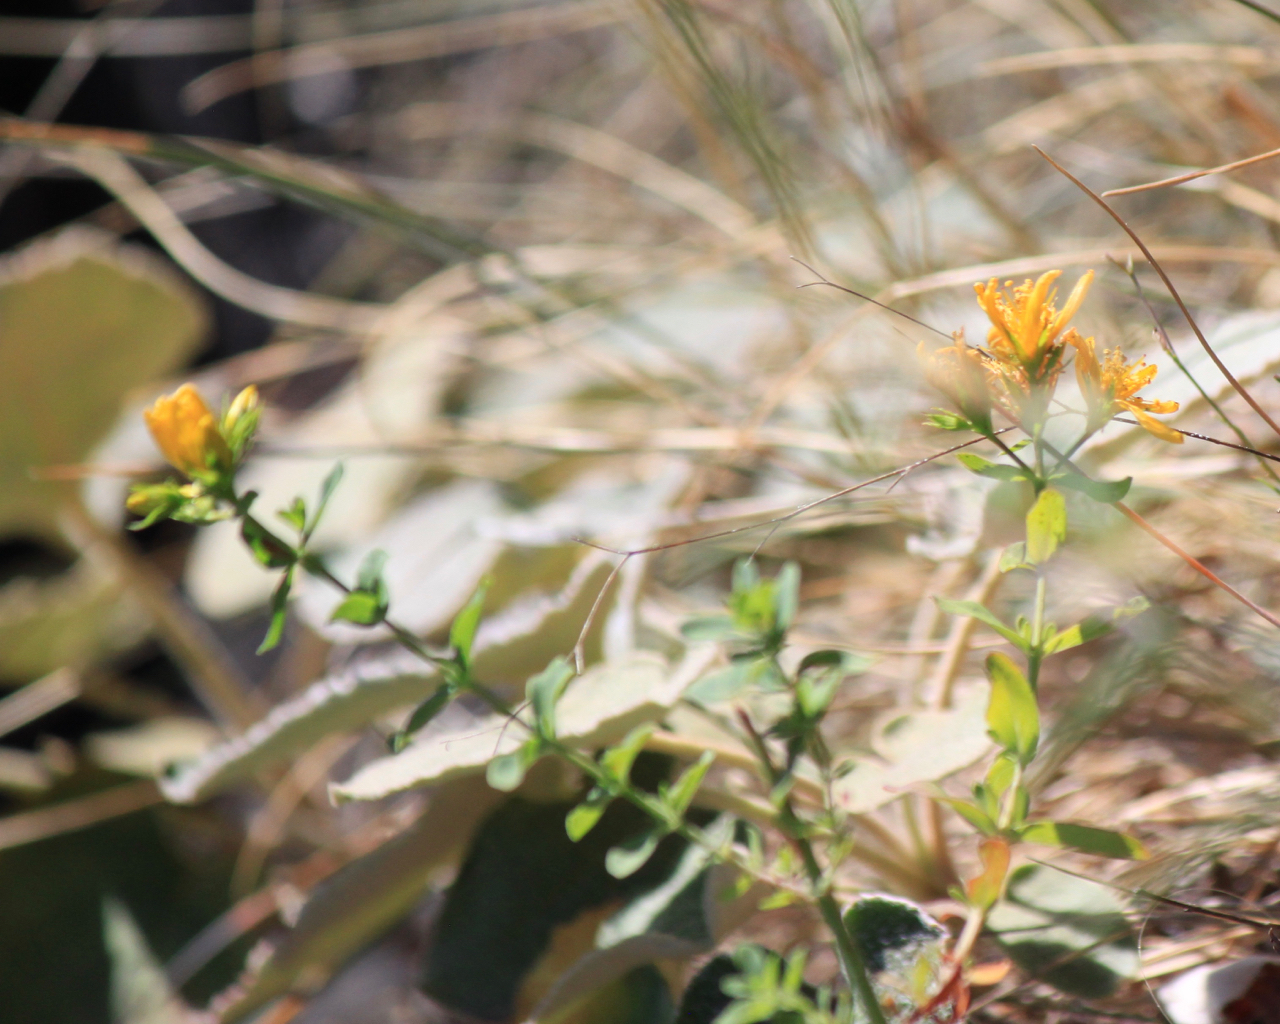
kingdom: Plantae
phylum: Tracheophyta
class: Magnoliopsida
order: Malpighiales
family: Hypericaceae
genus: Hypericum
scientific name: Hypericum perforatum
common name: Common st. johnswort
